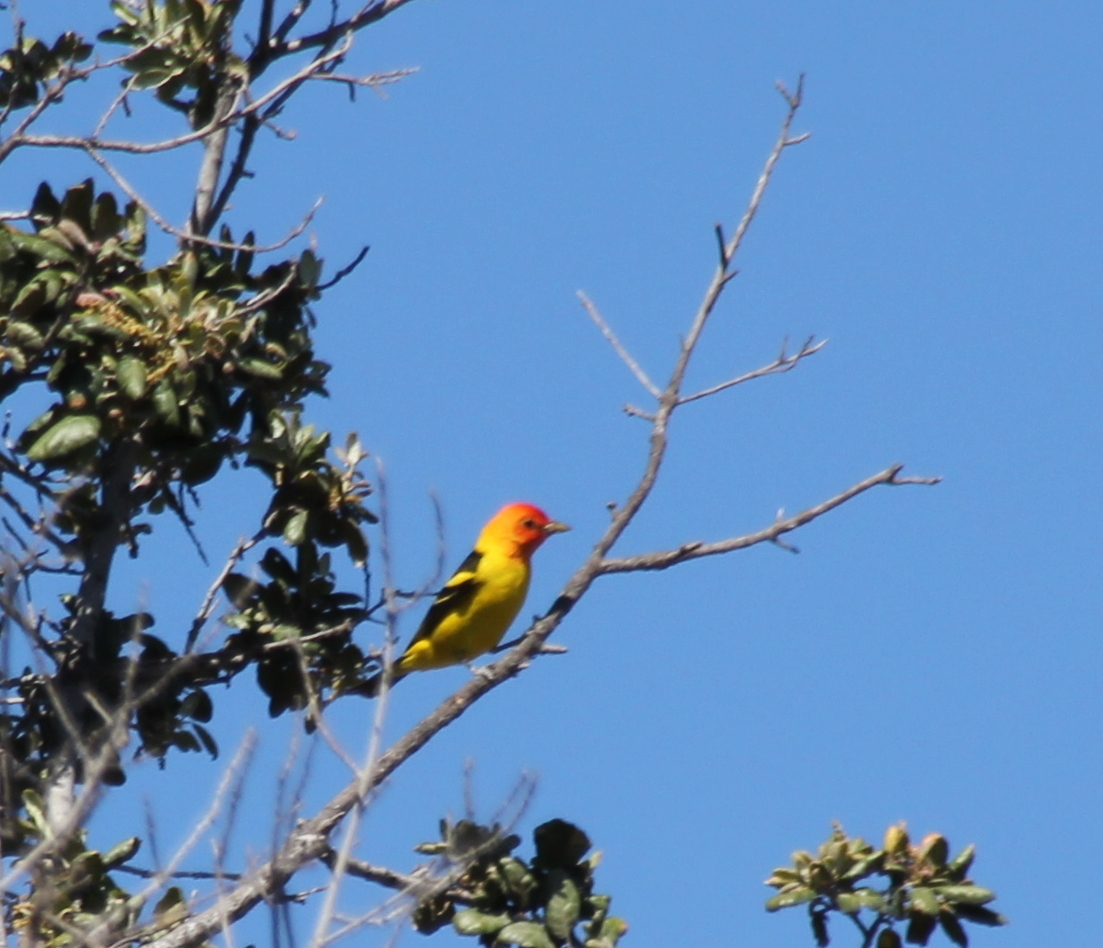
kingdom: Animalia
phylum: Chordata
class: Aves
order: Passeriformes
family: Cardinalidae
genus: Piranga
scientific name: Piranga ludoviciana
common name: Western tanager
